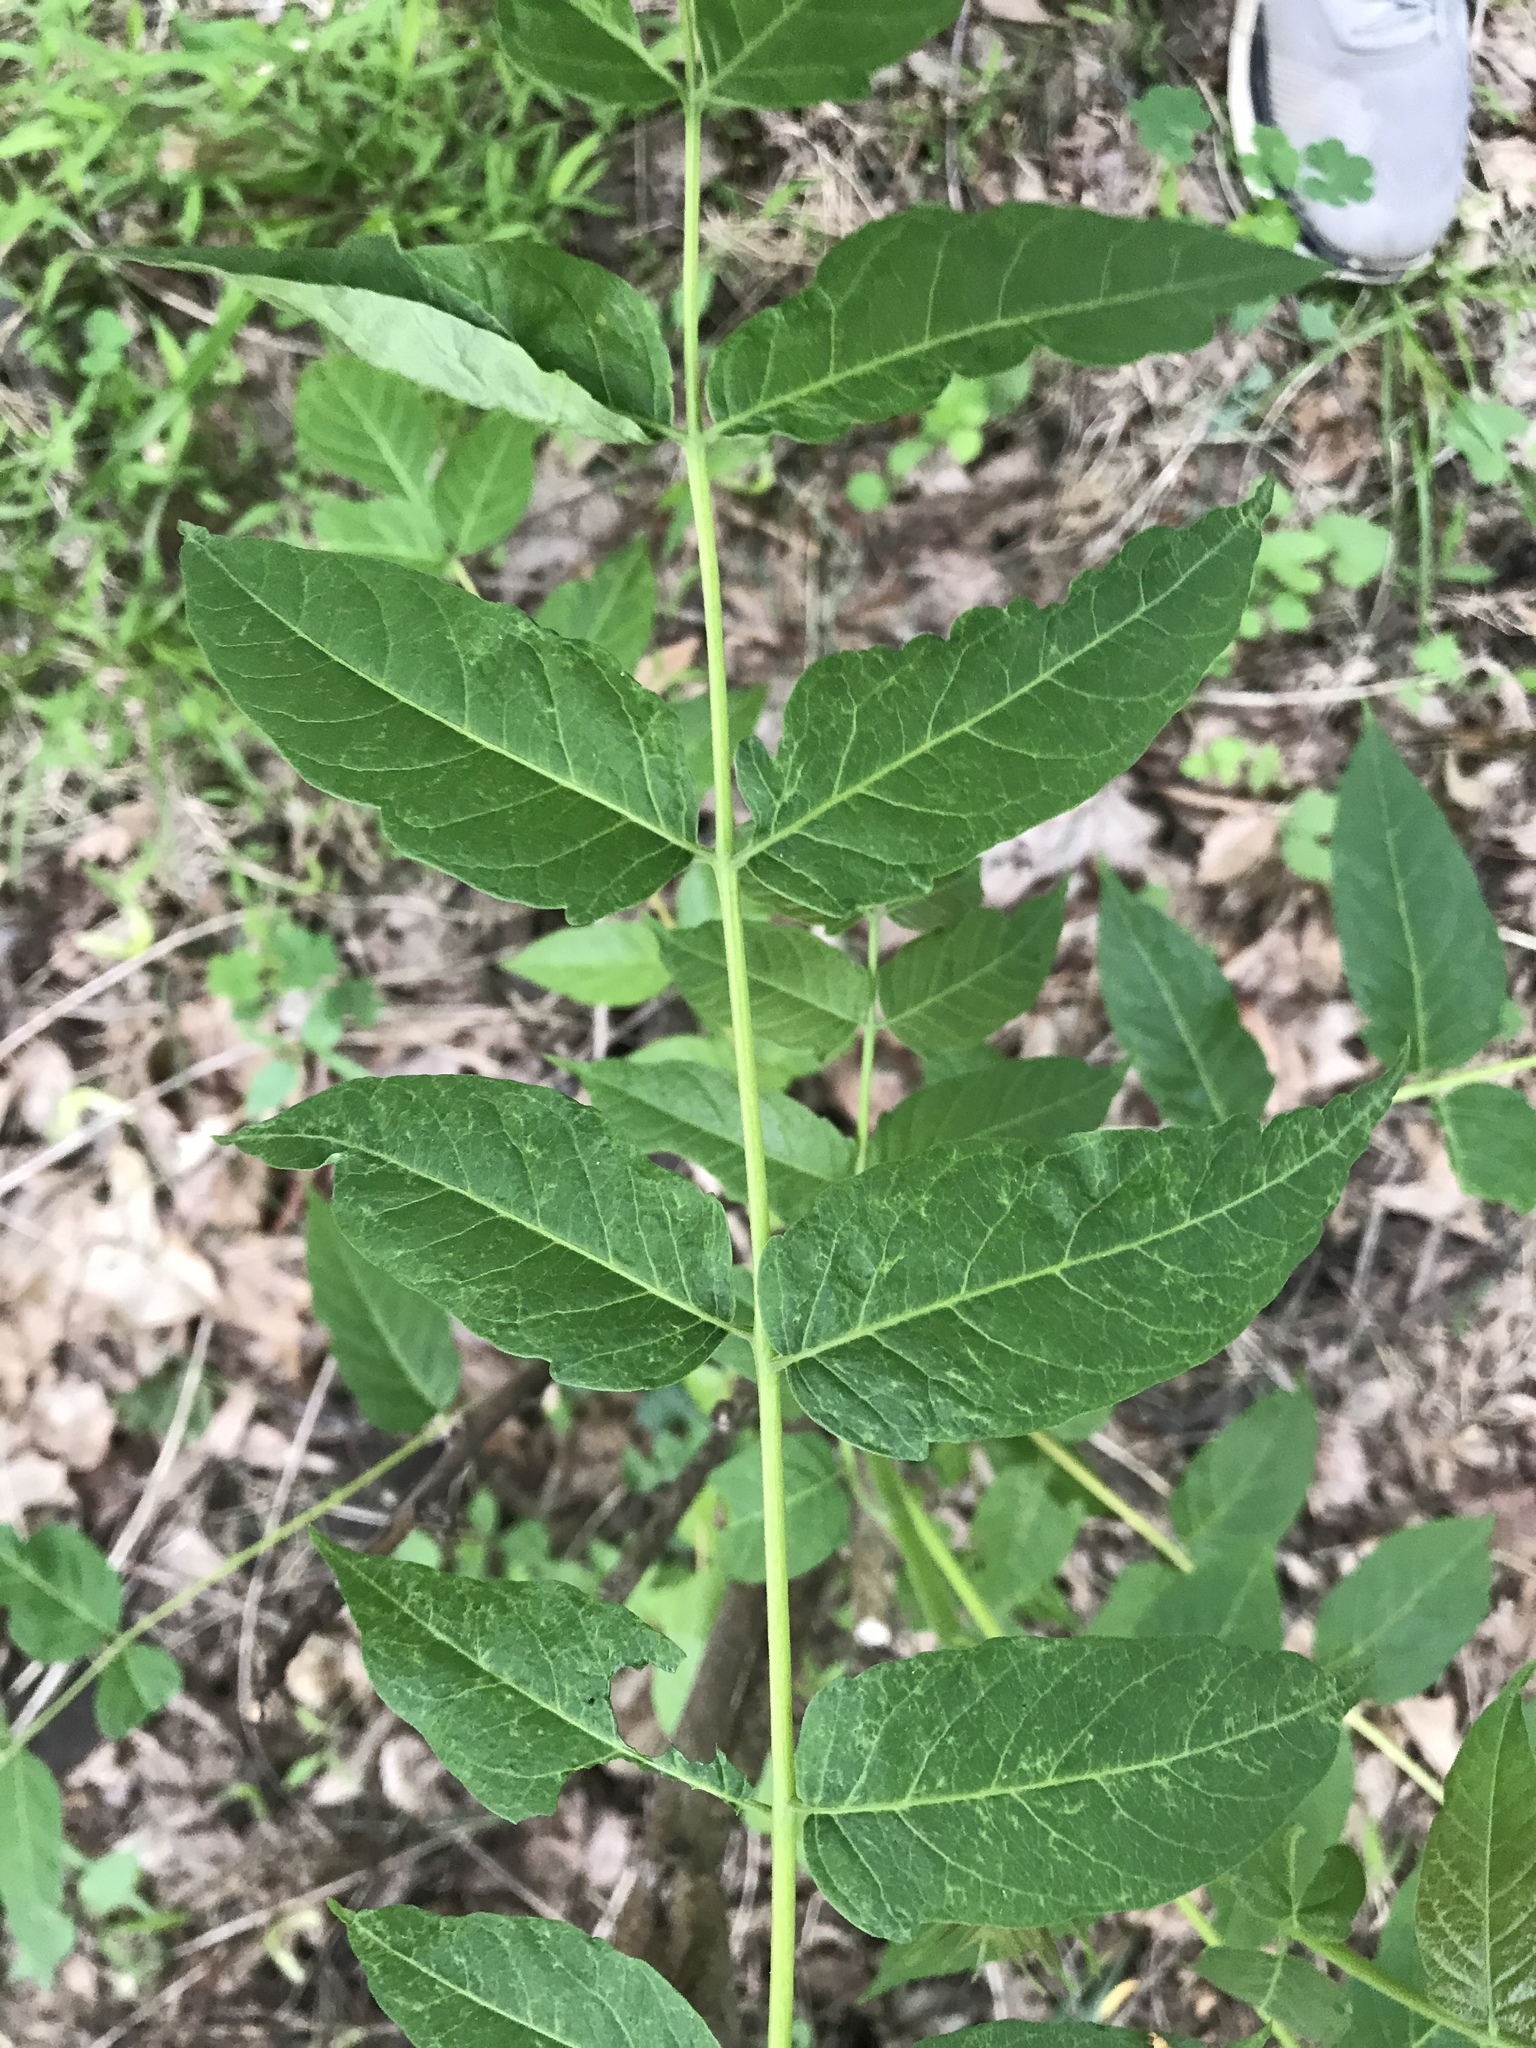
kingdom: Plantae
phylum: Tracheophyta
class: Magnoliopsida
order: Sapindales
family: Simaroubaceae
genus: Ailanthus
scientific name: Ailanthus altissima
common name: Tree-of-heaven
